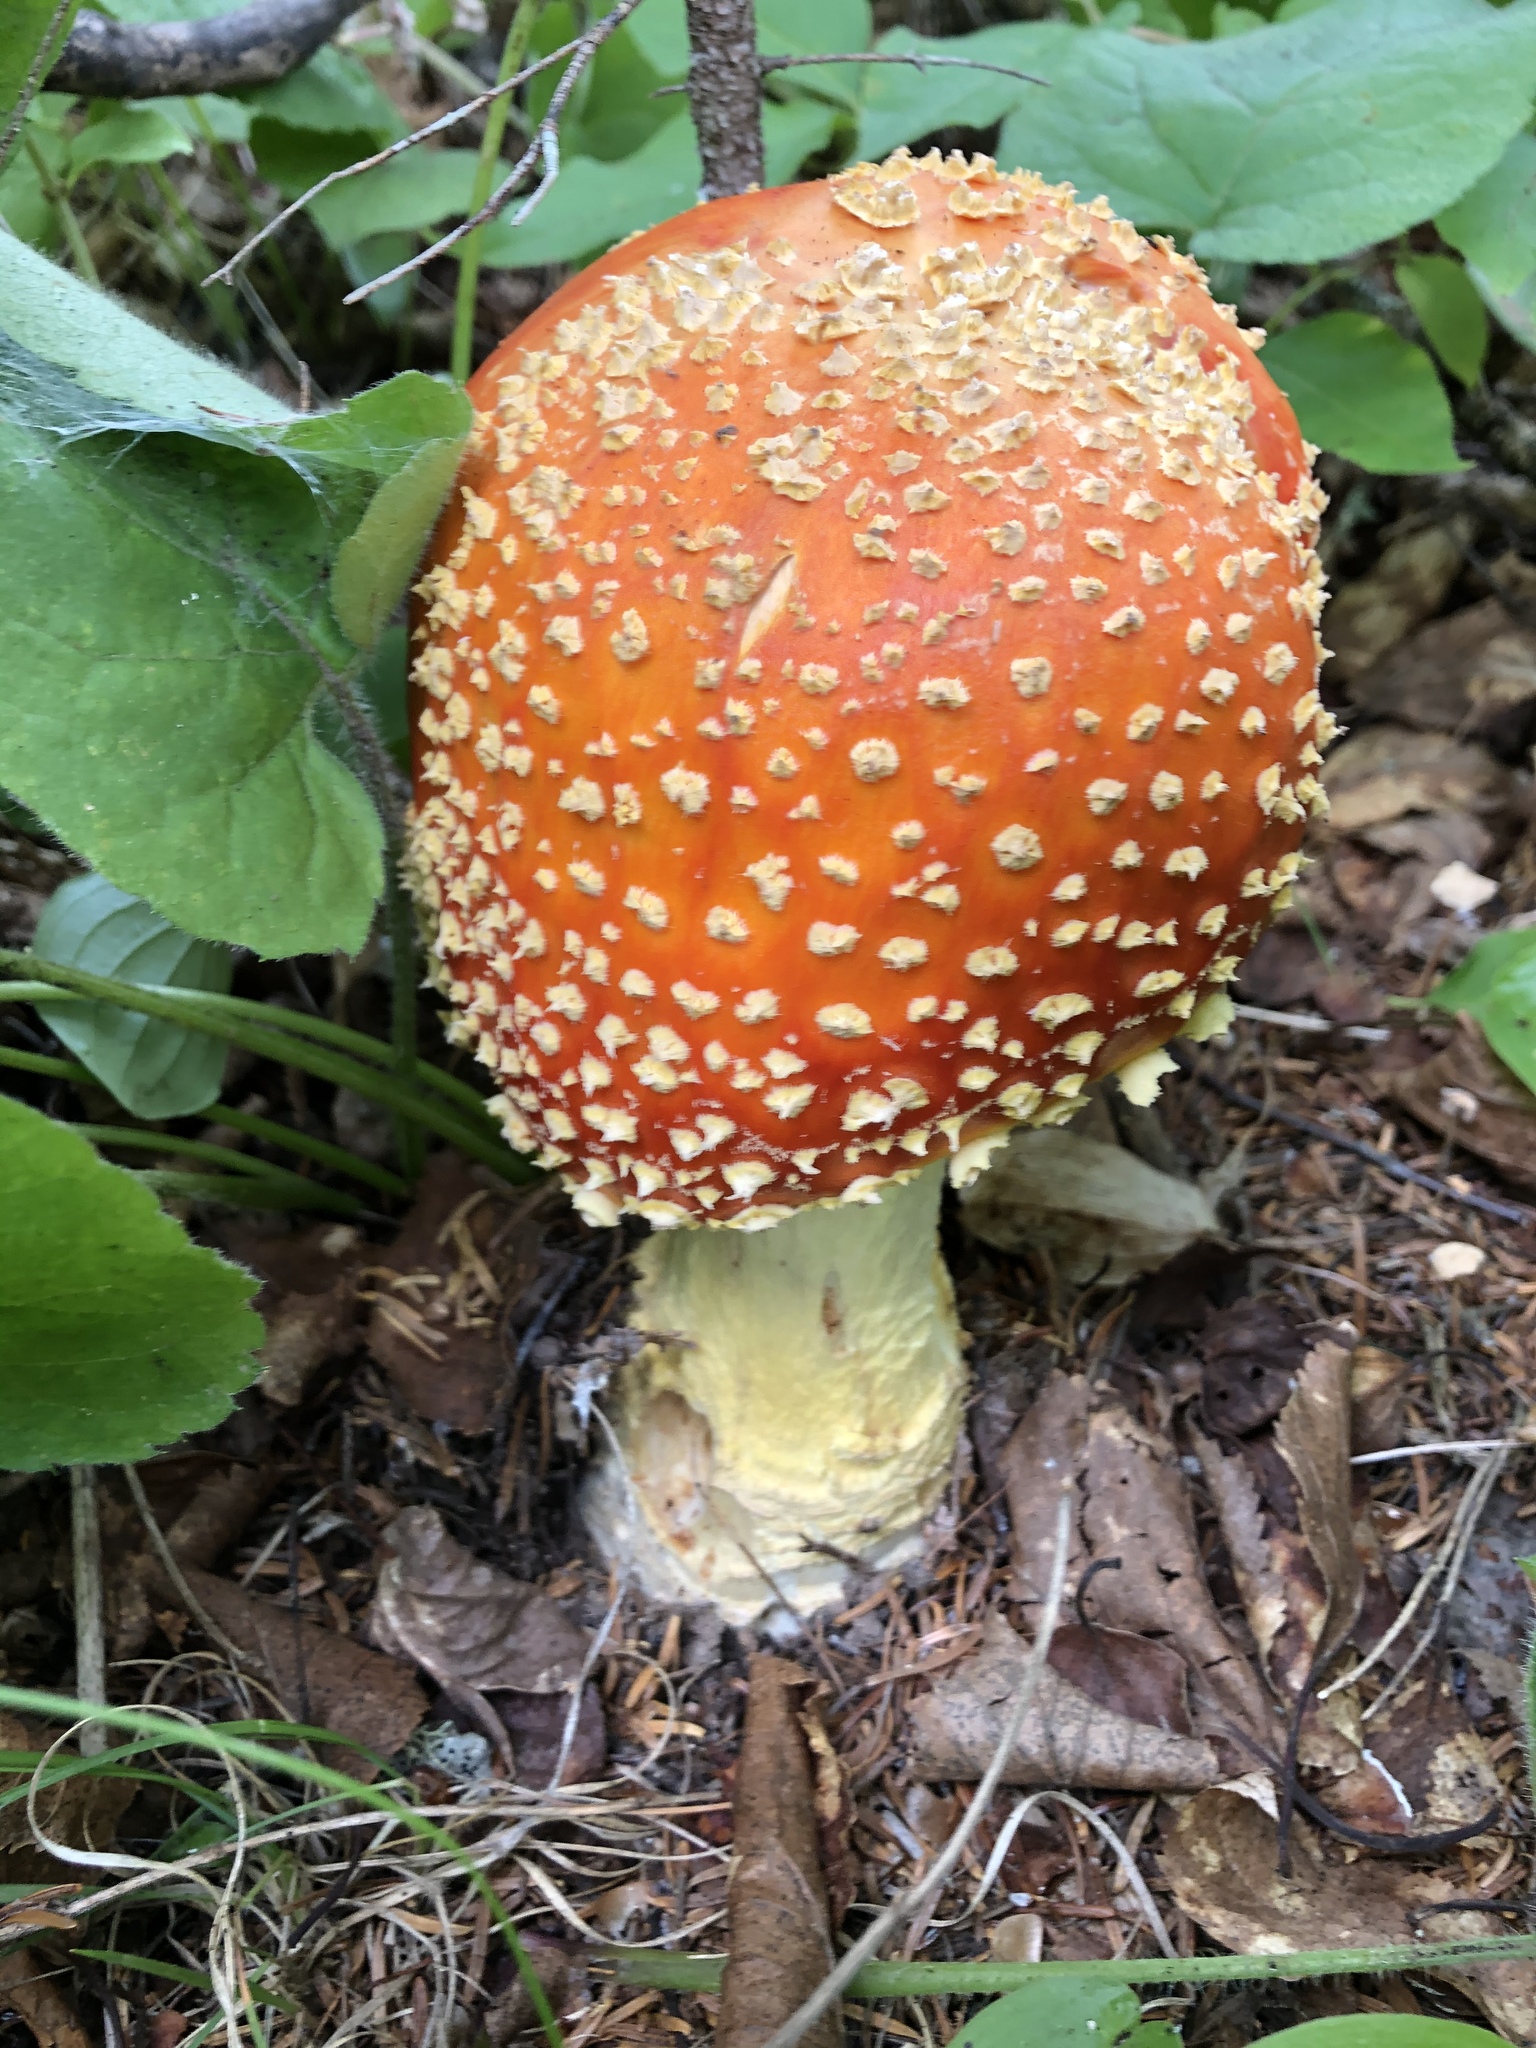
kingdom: Fungi
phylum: Basidiomycota
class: Agaricomycetes
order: Agaricales
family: Amanitaceae
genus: Amanita
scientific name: Amanita muscaria
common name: Fly agaric
